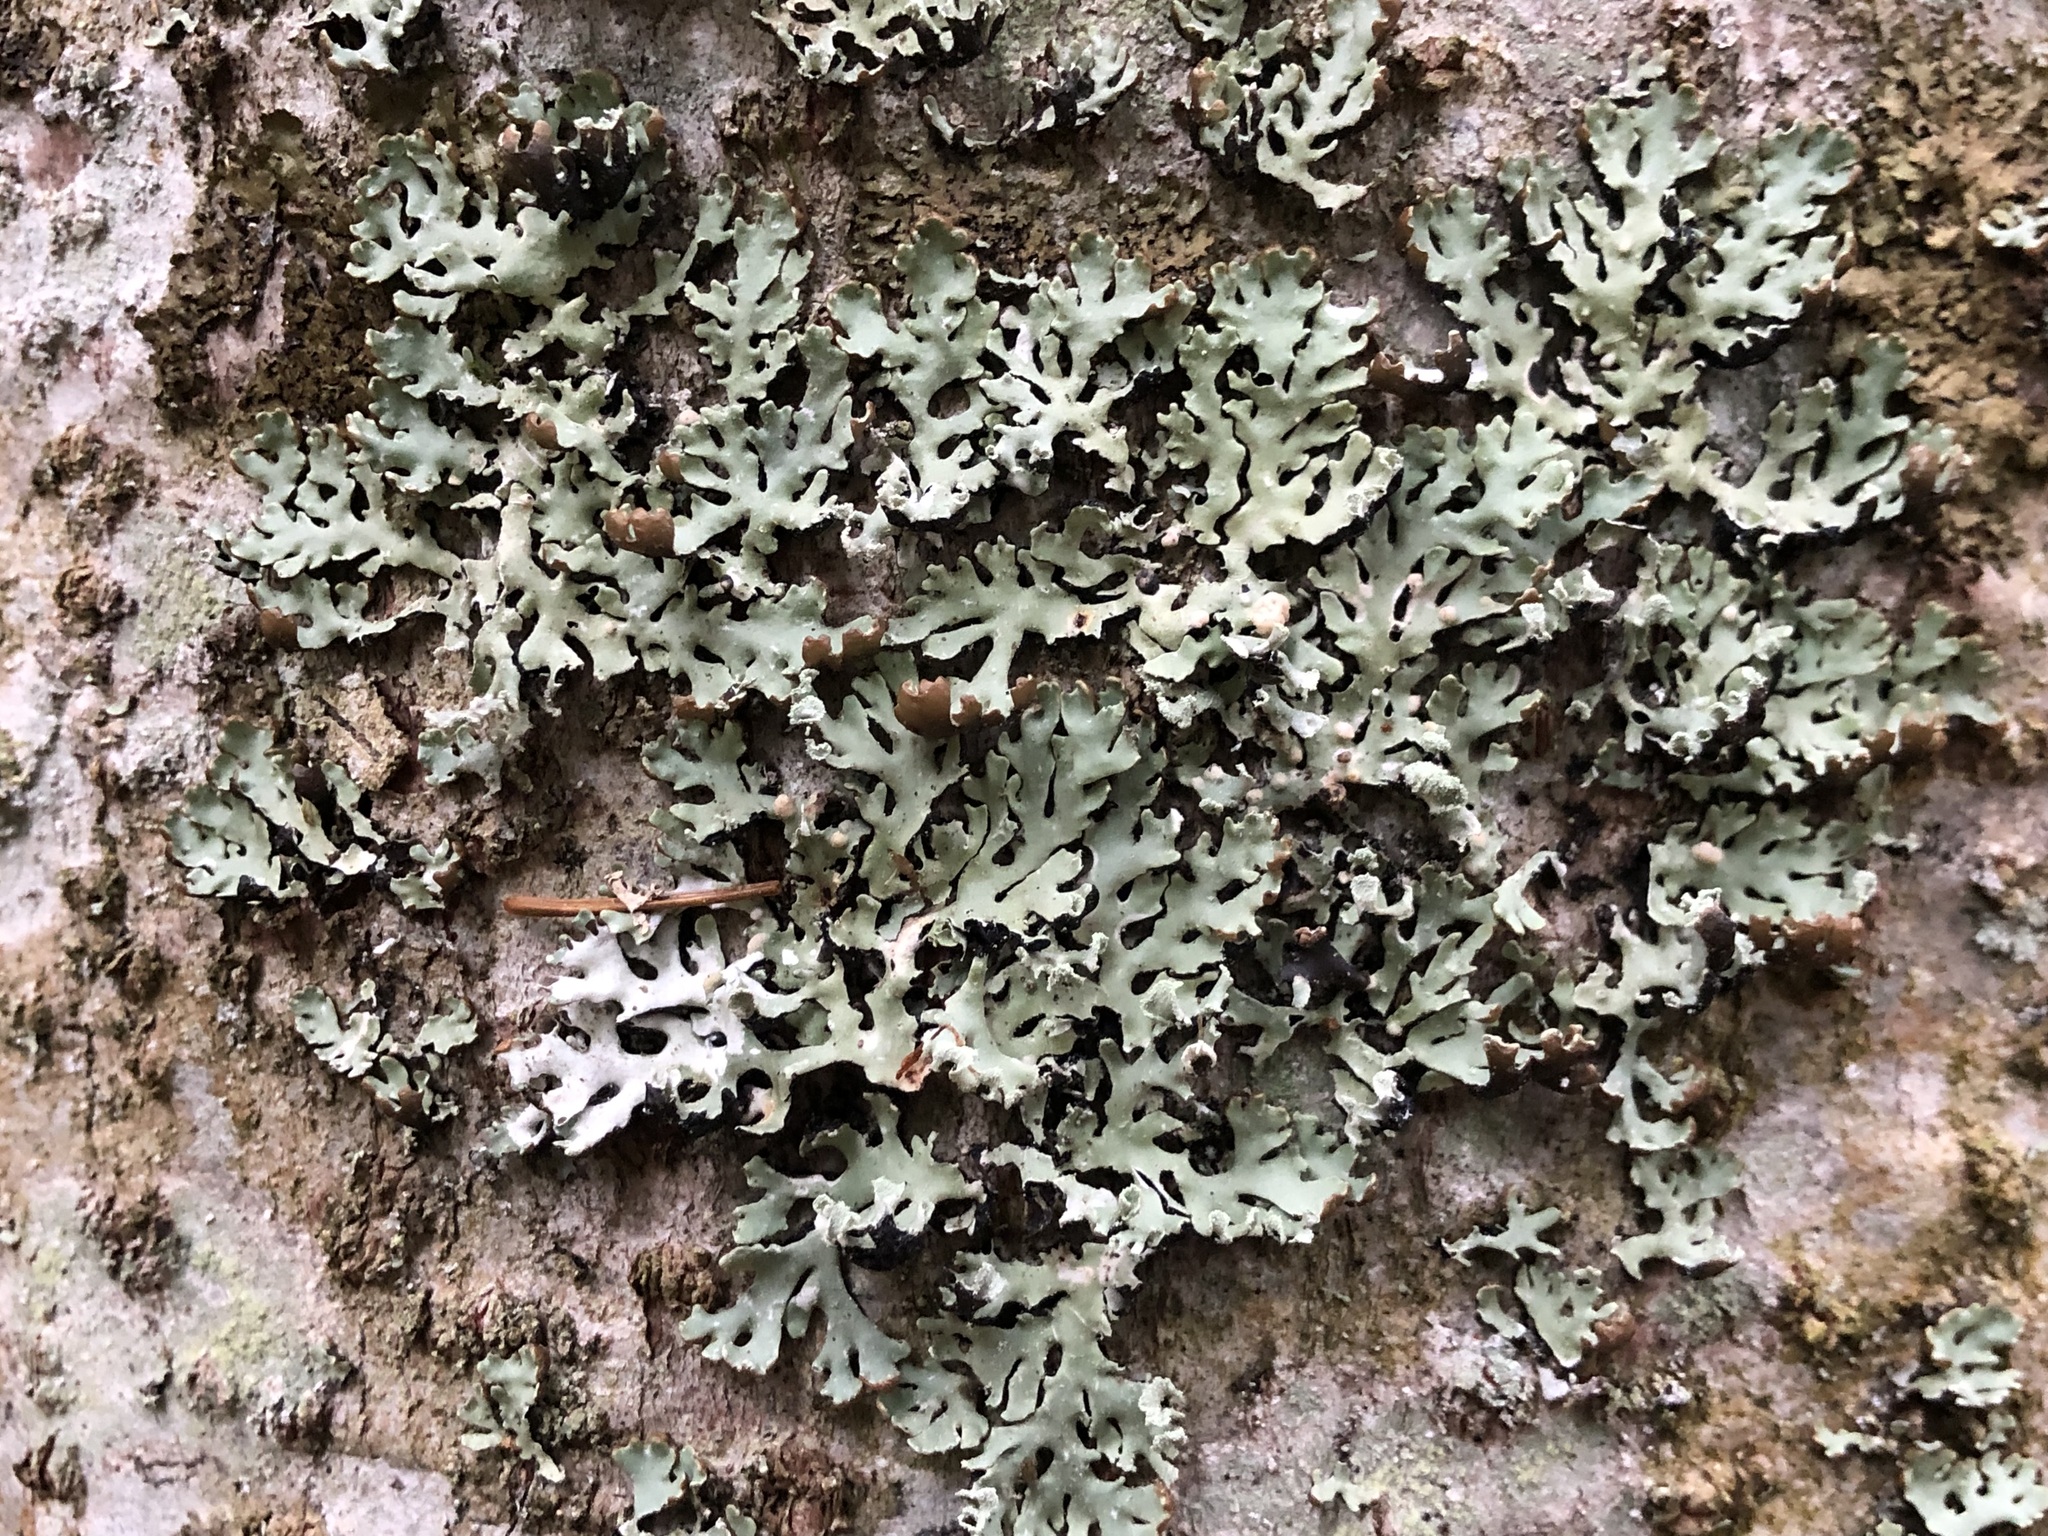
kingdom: Fungi
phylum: Ascomycota
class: Lecanoromycetes
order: Lecanorales
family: Parmeliaceae
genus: Hypogymnia
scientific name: Hypogymnia physodes
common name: Dark crottle
